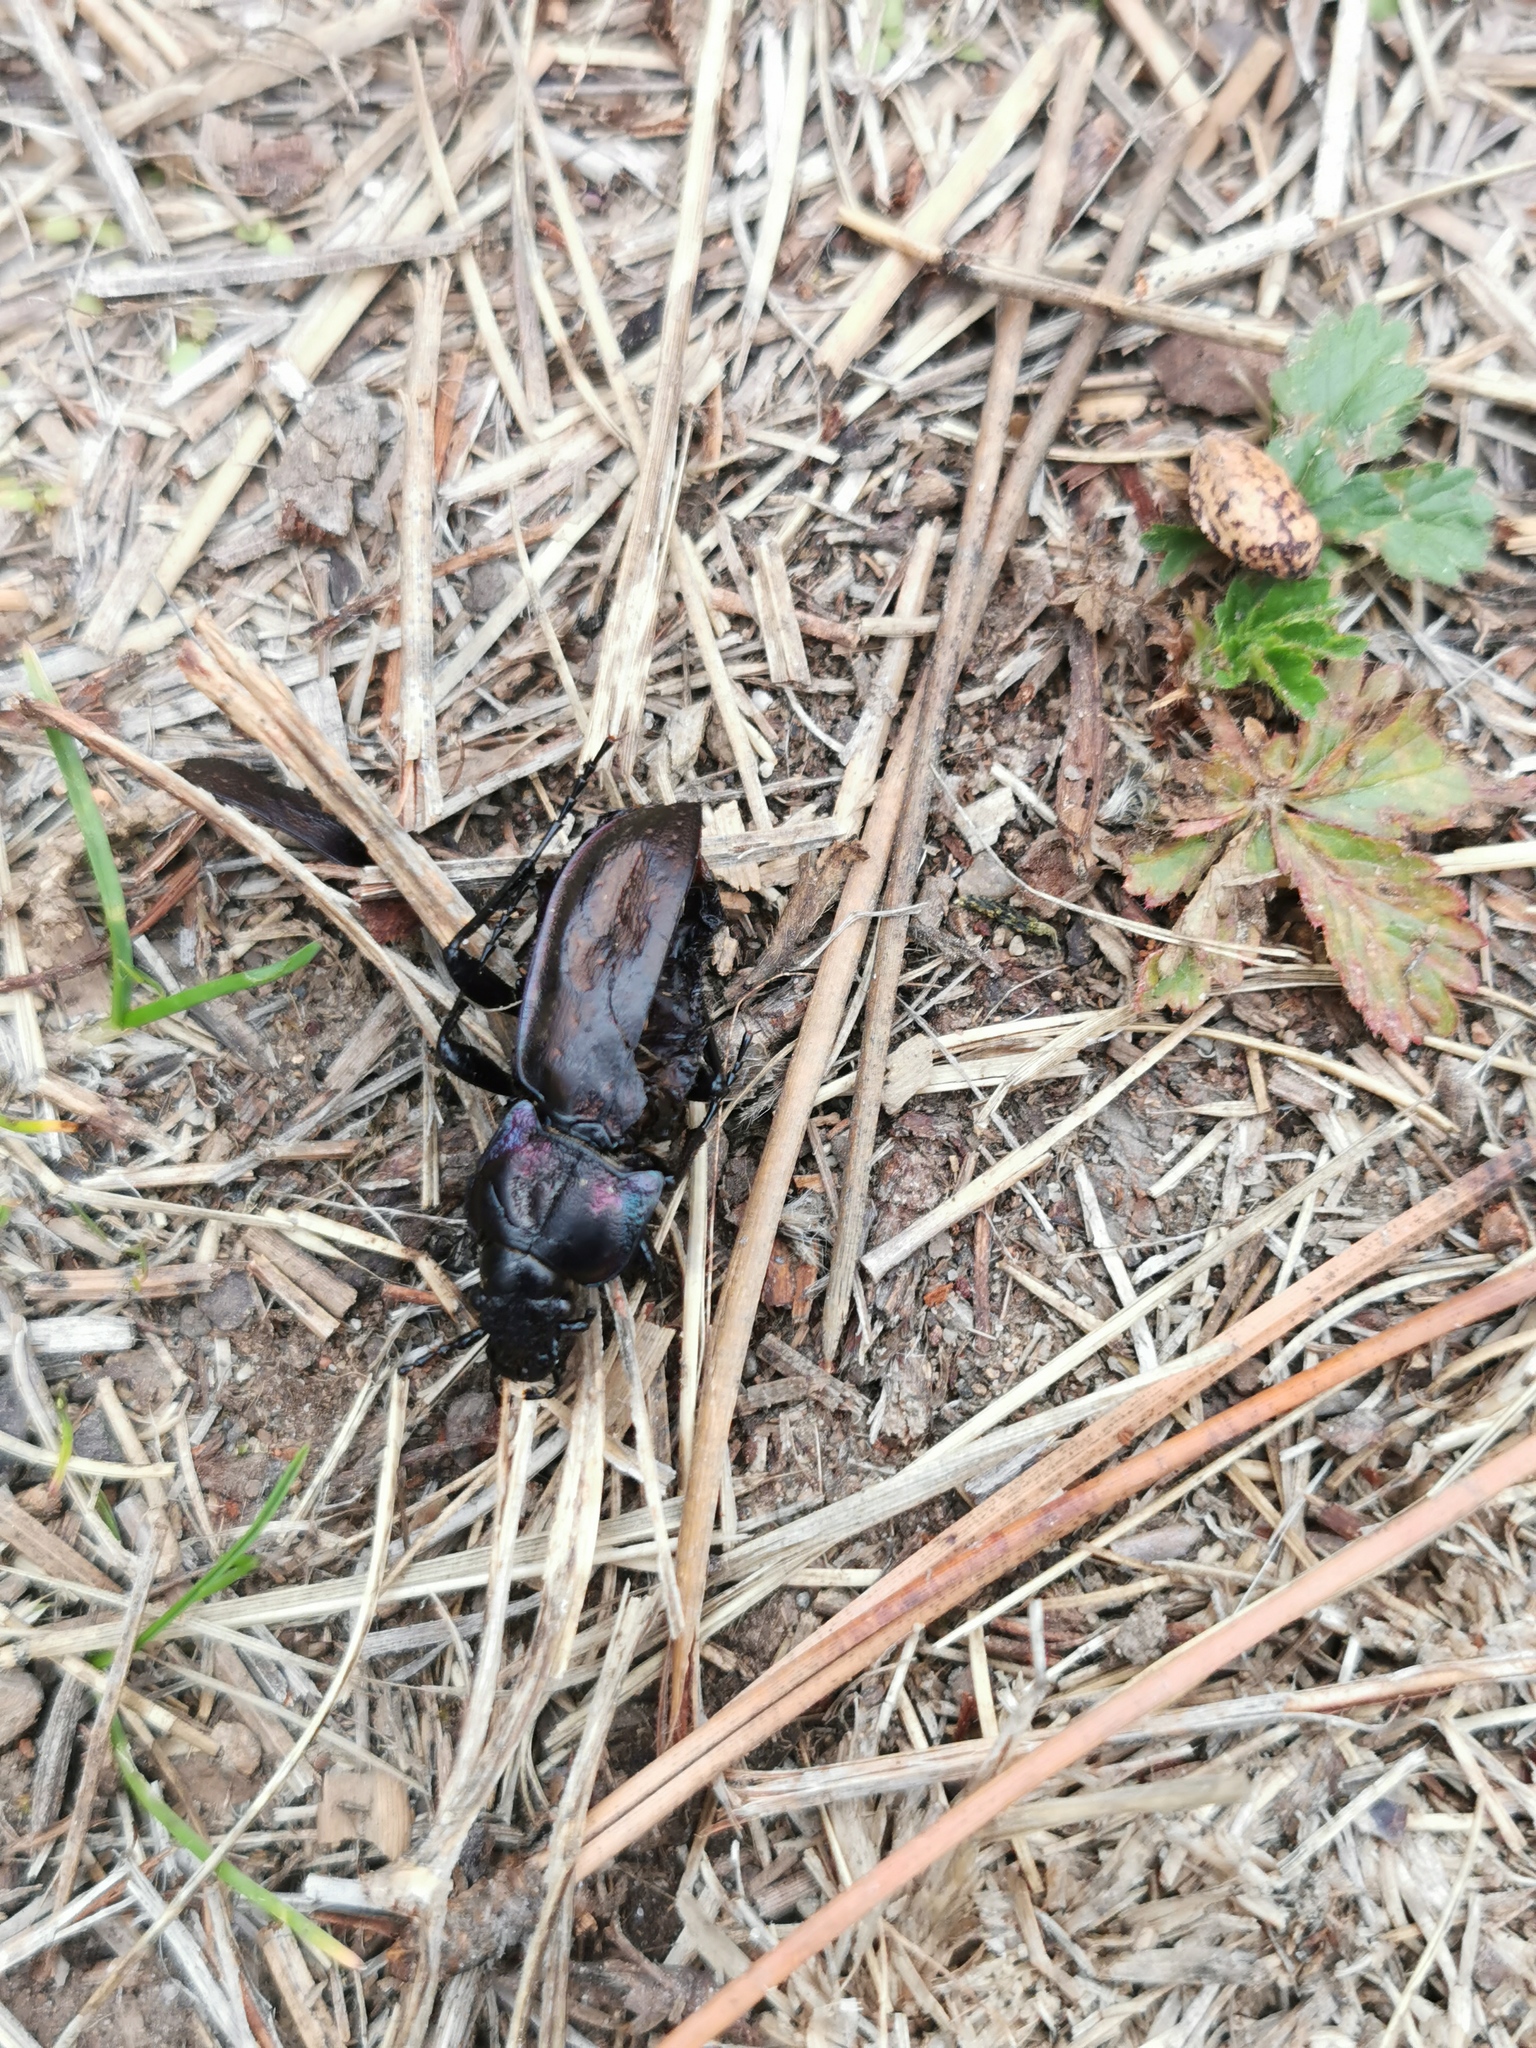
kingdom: Animalia
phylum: Arthropoda
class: Insecta
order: Coleoptera
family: Carabidae
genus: Carabus
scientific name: Carabus nemoralis
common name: European ground beetle
